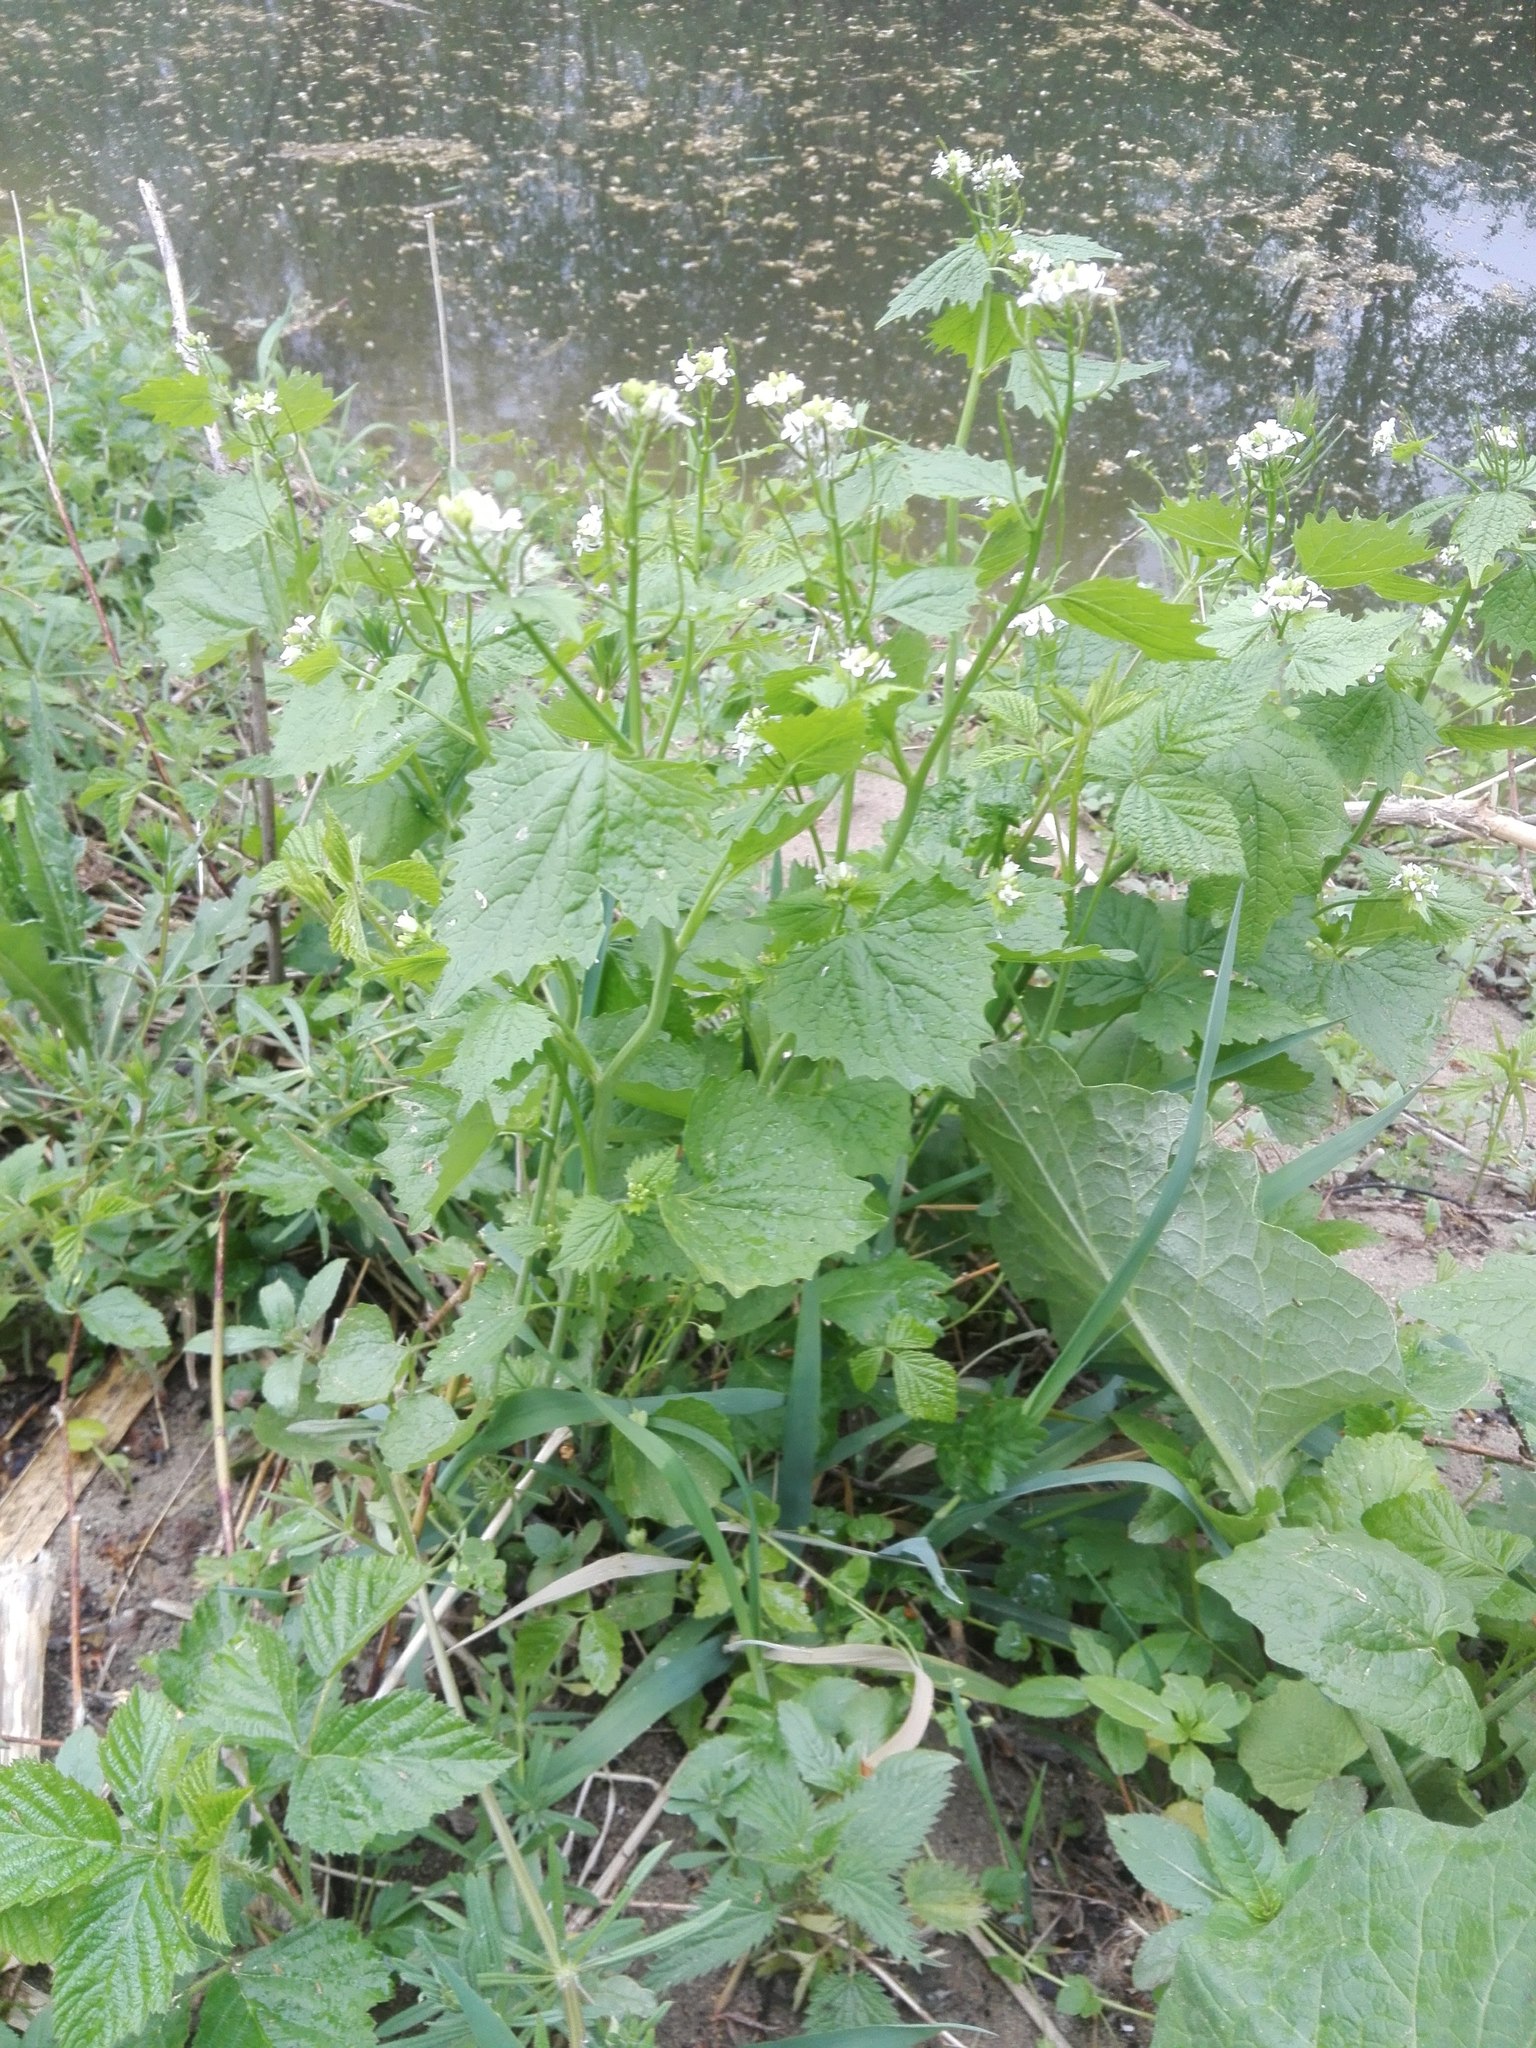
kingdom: Plantae
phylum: Tracheophyta
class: Magnoliopsida
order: Brassicales
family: Brassicaceae
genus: Alliaria
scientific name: Alliaria petiolata
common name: Garlic mustard
